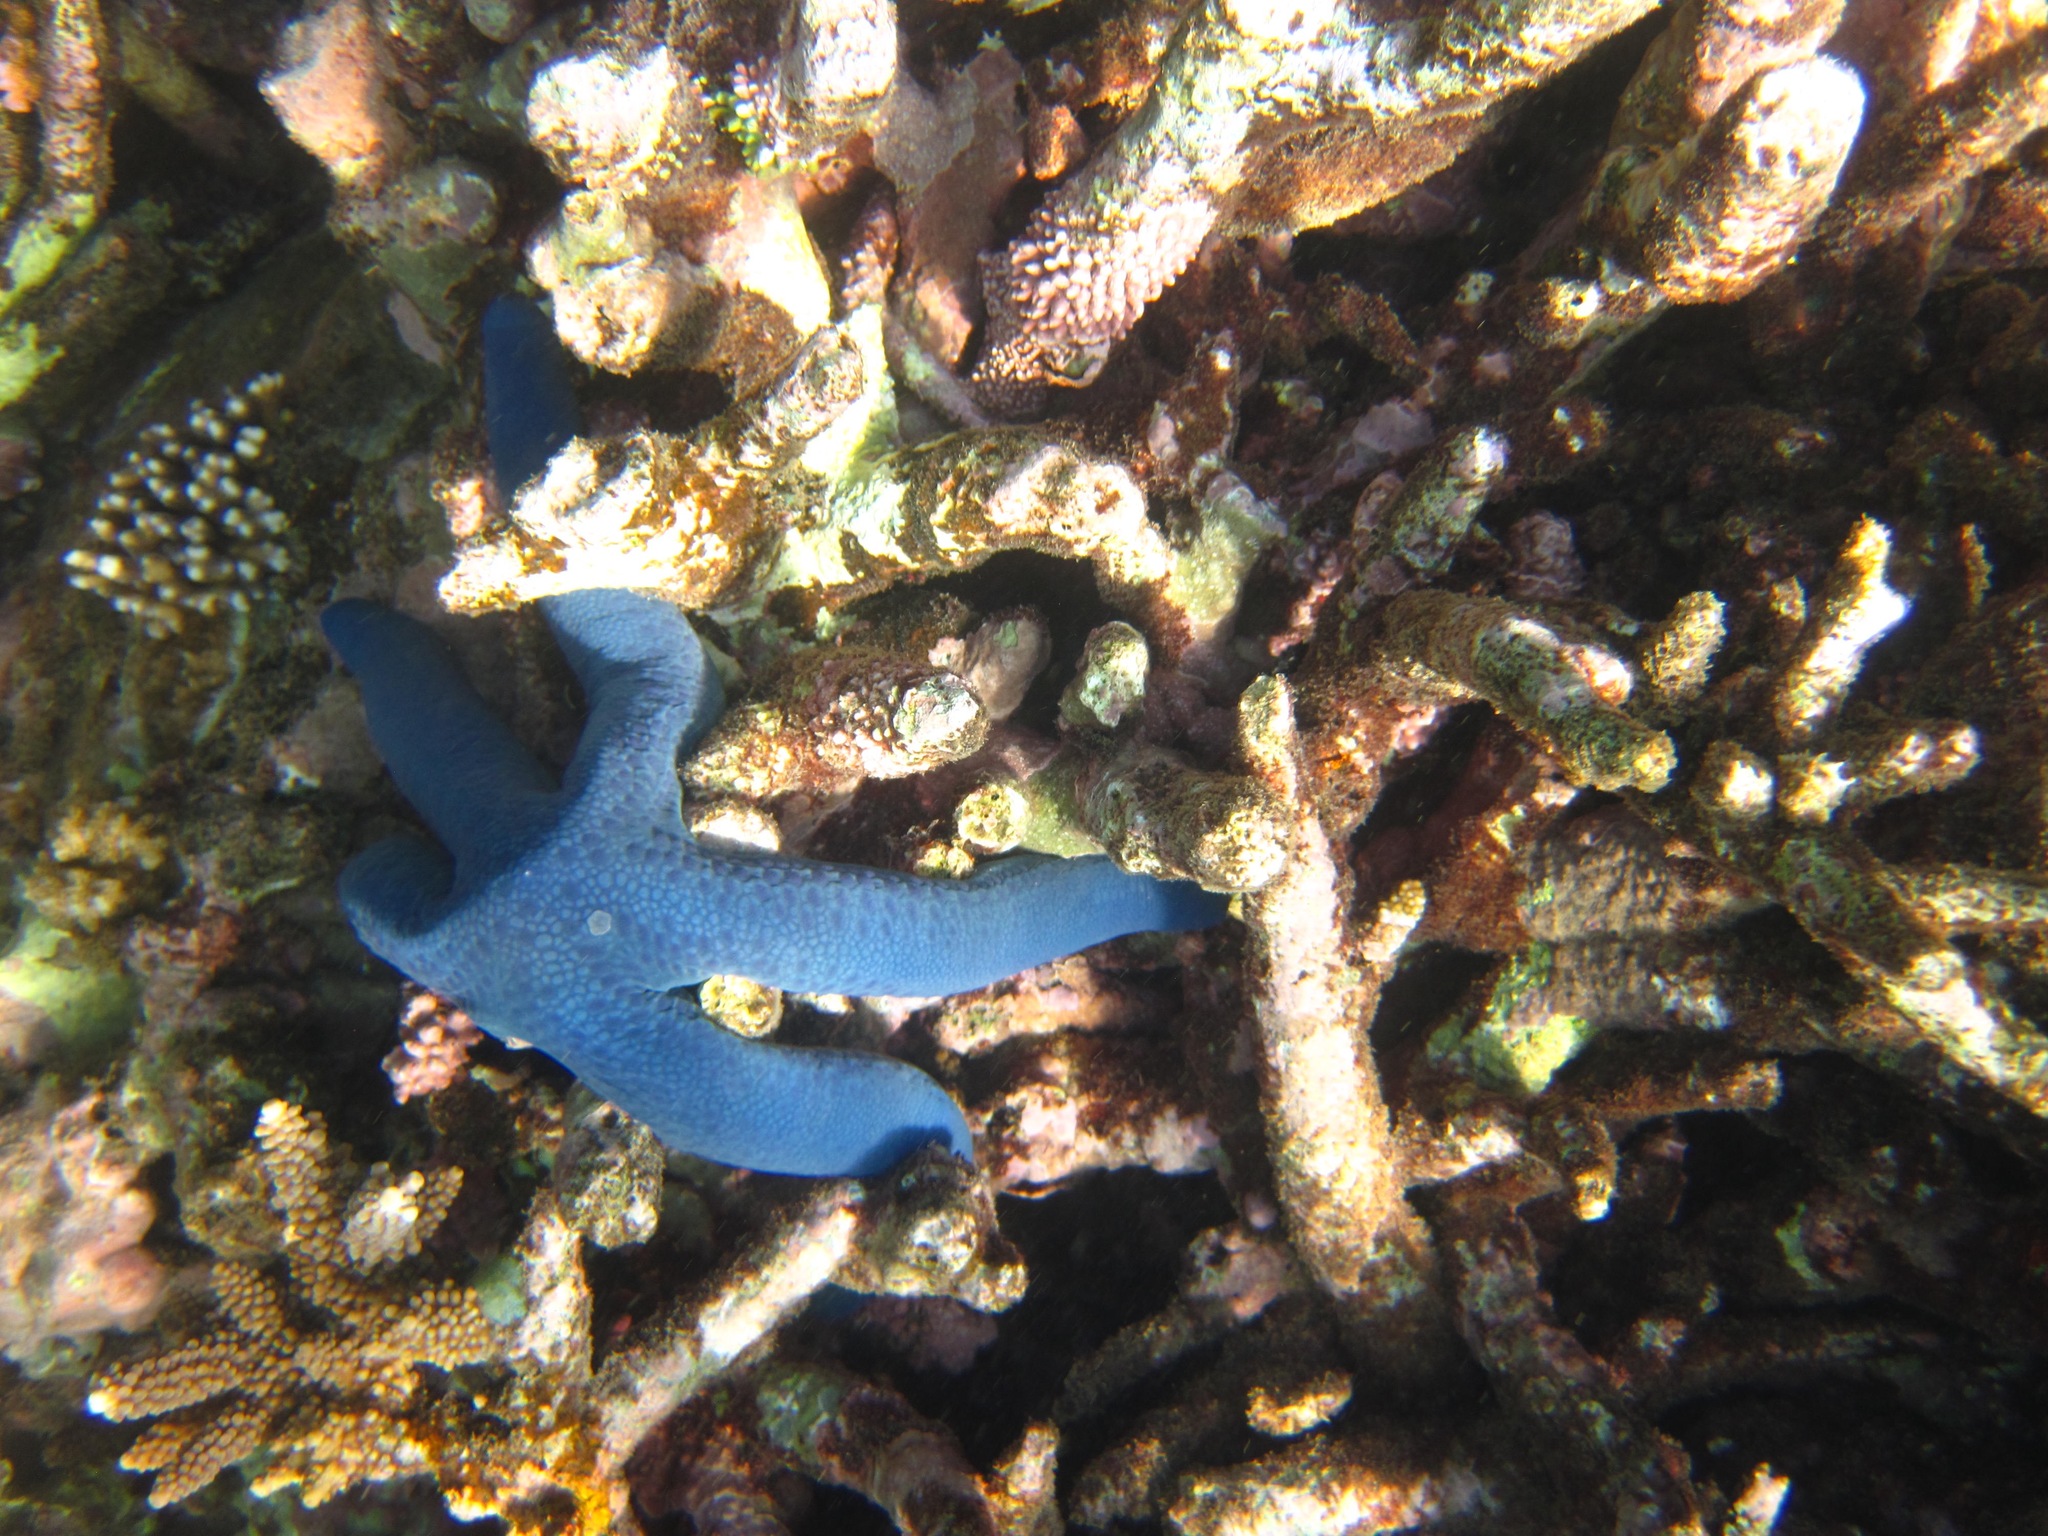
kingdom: Animalia
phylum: Echinodermata
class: Asteroidea
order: Valvatida
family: Ophidiasteridae
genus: Linckia
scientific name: Linckia laevigata
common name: Azure sea star
